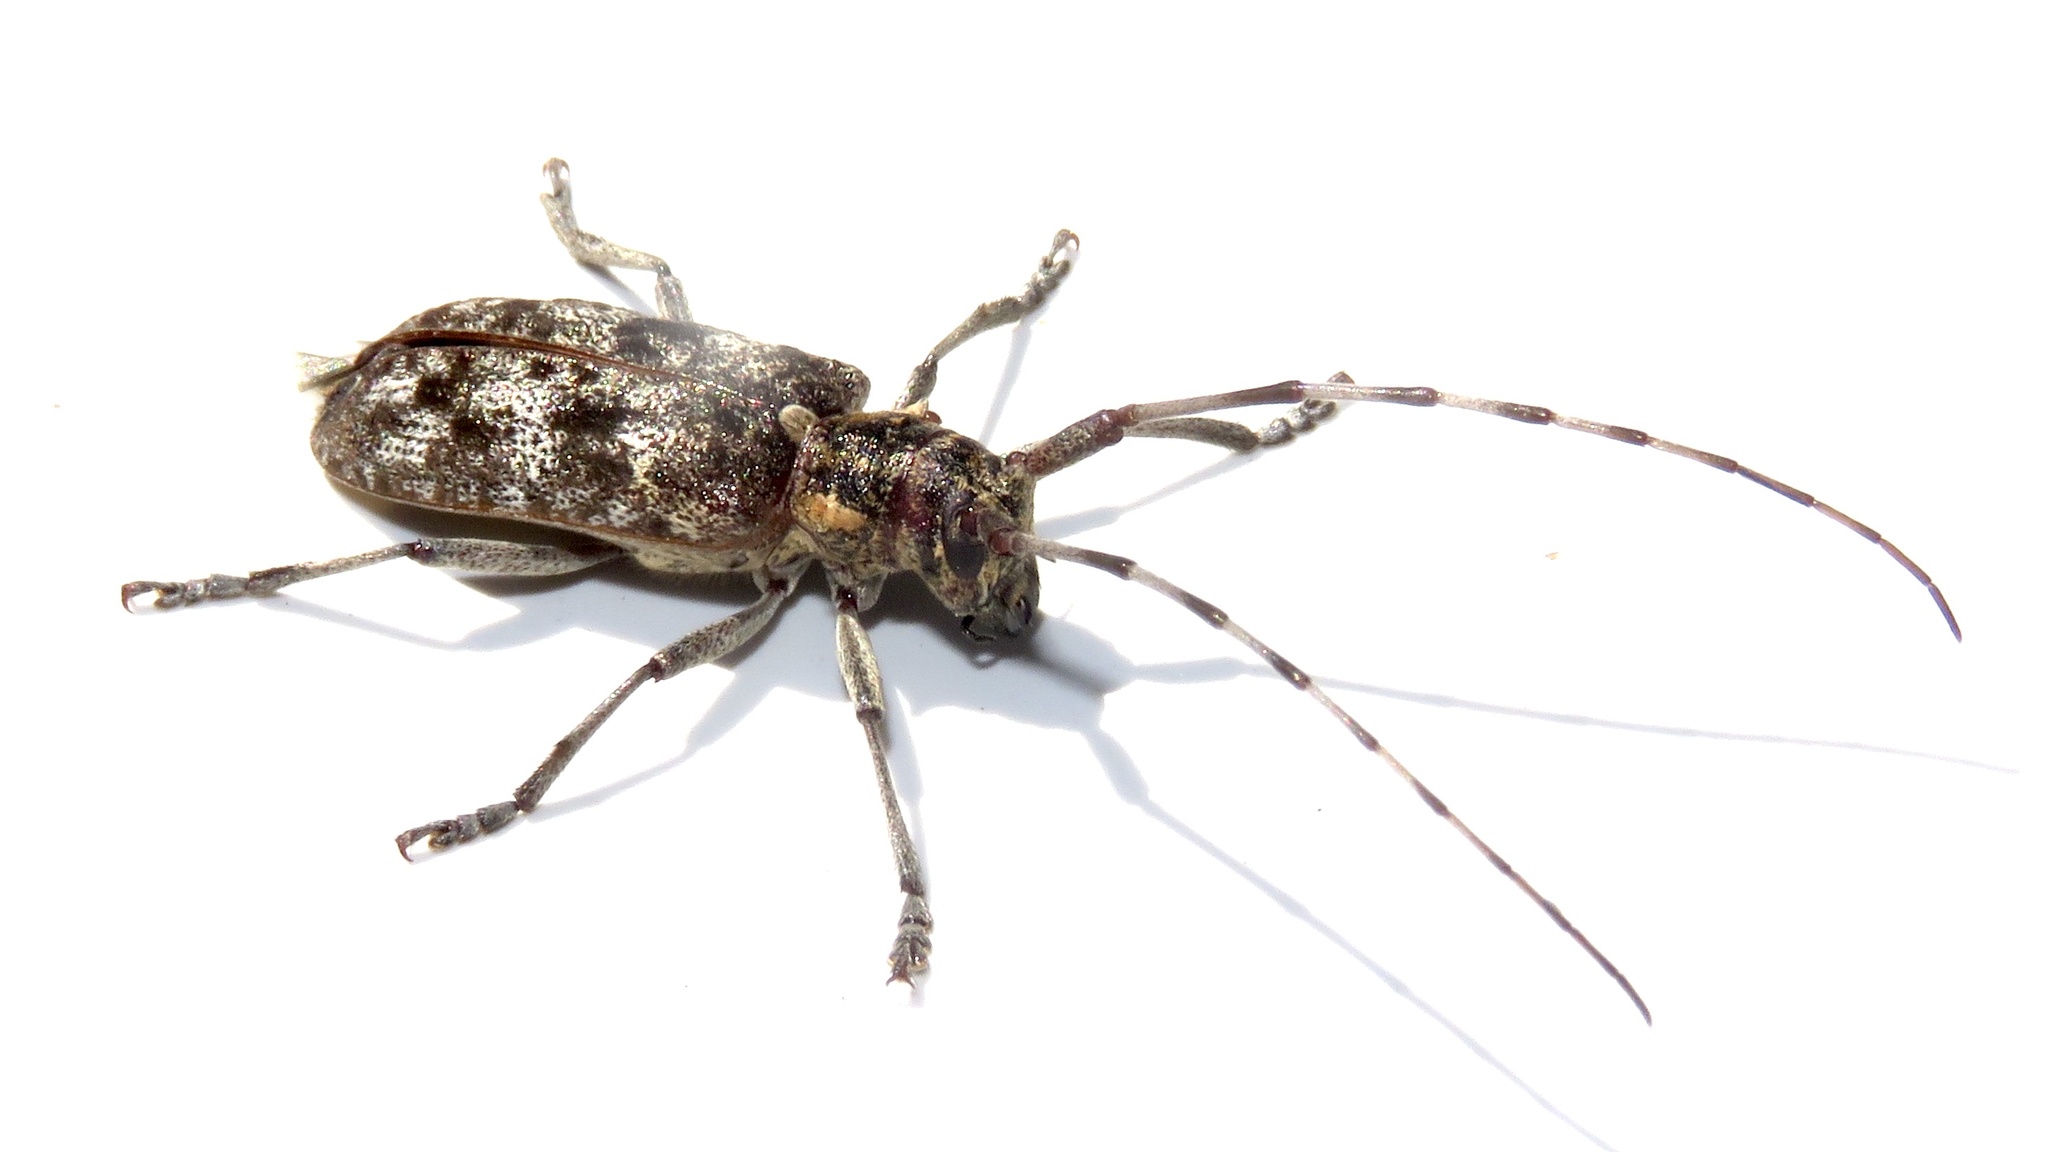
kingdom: Animalia
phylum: Arthropoda
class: Insecta
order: Coleoptera
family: Cerambycidae
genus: Monochamus
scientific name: Monochamus
